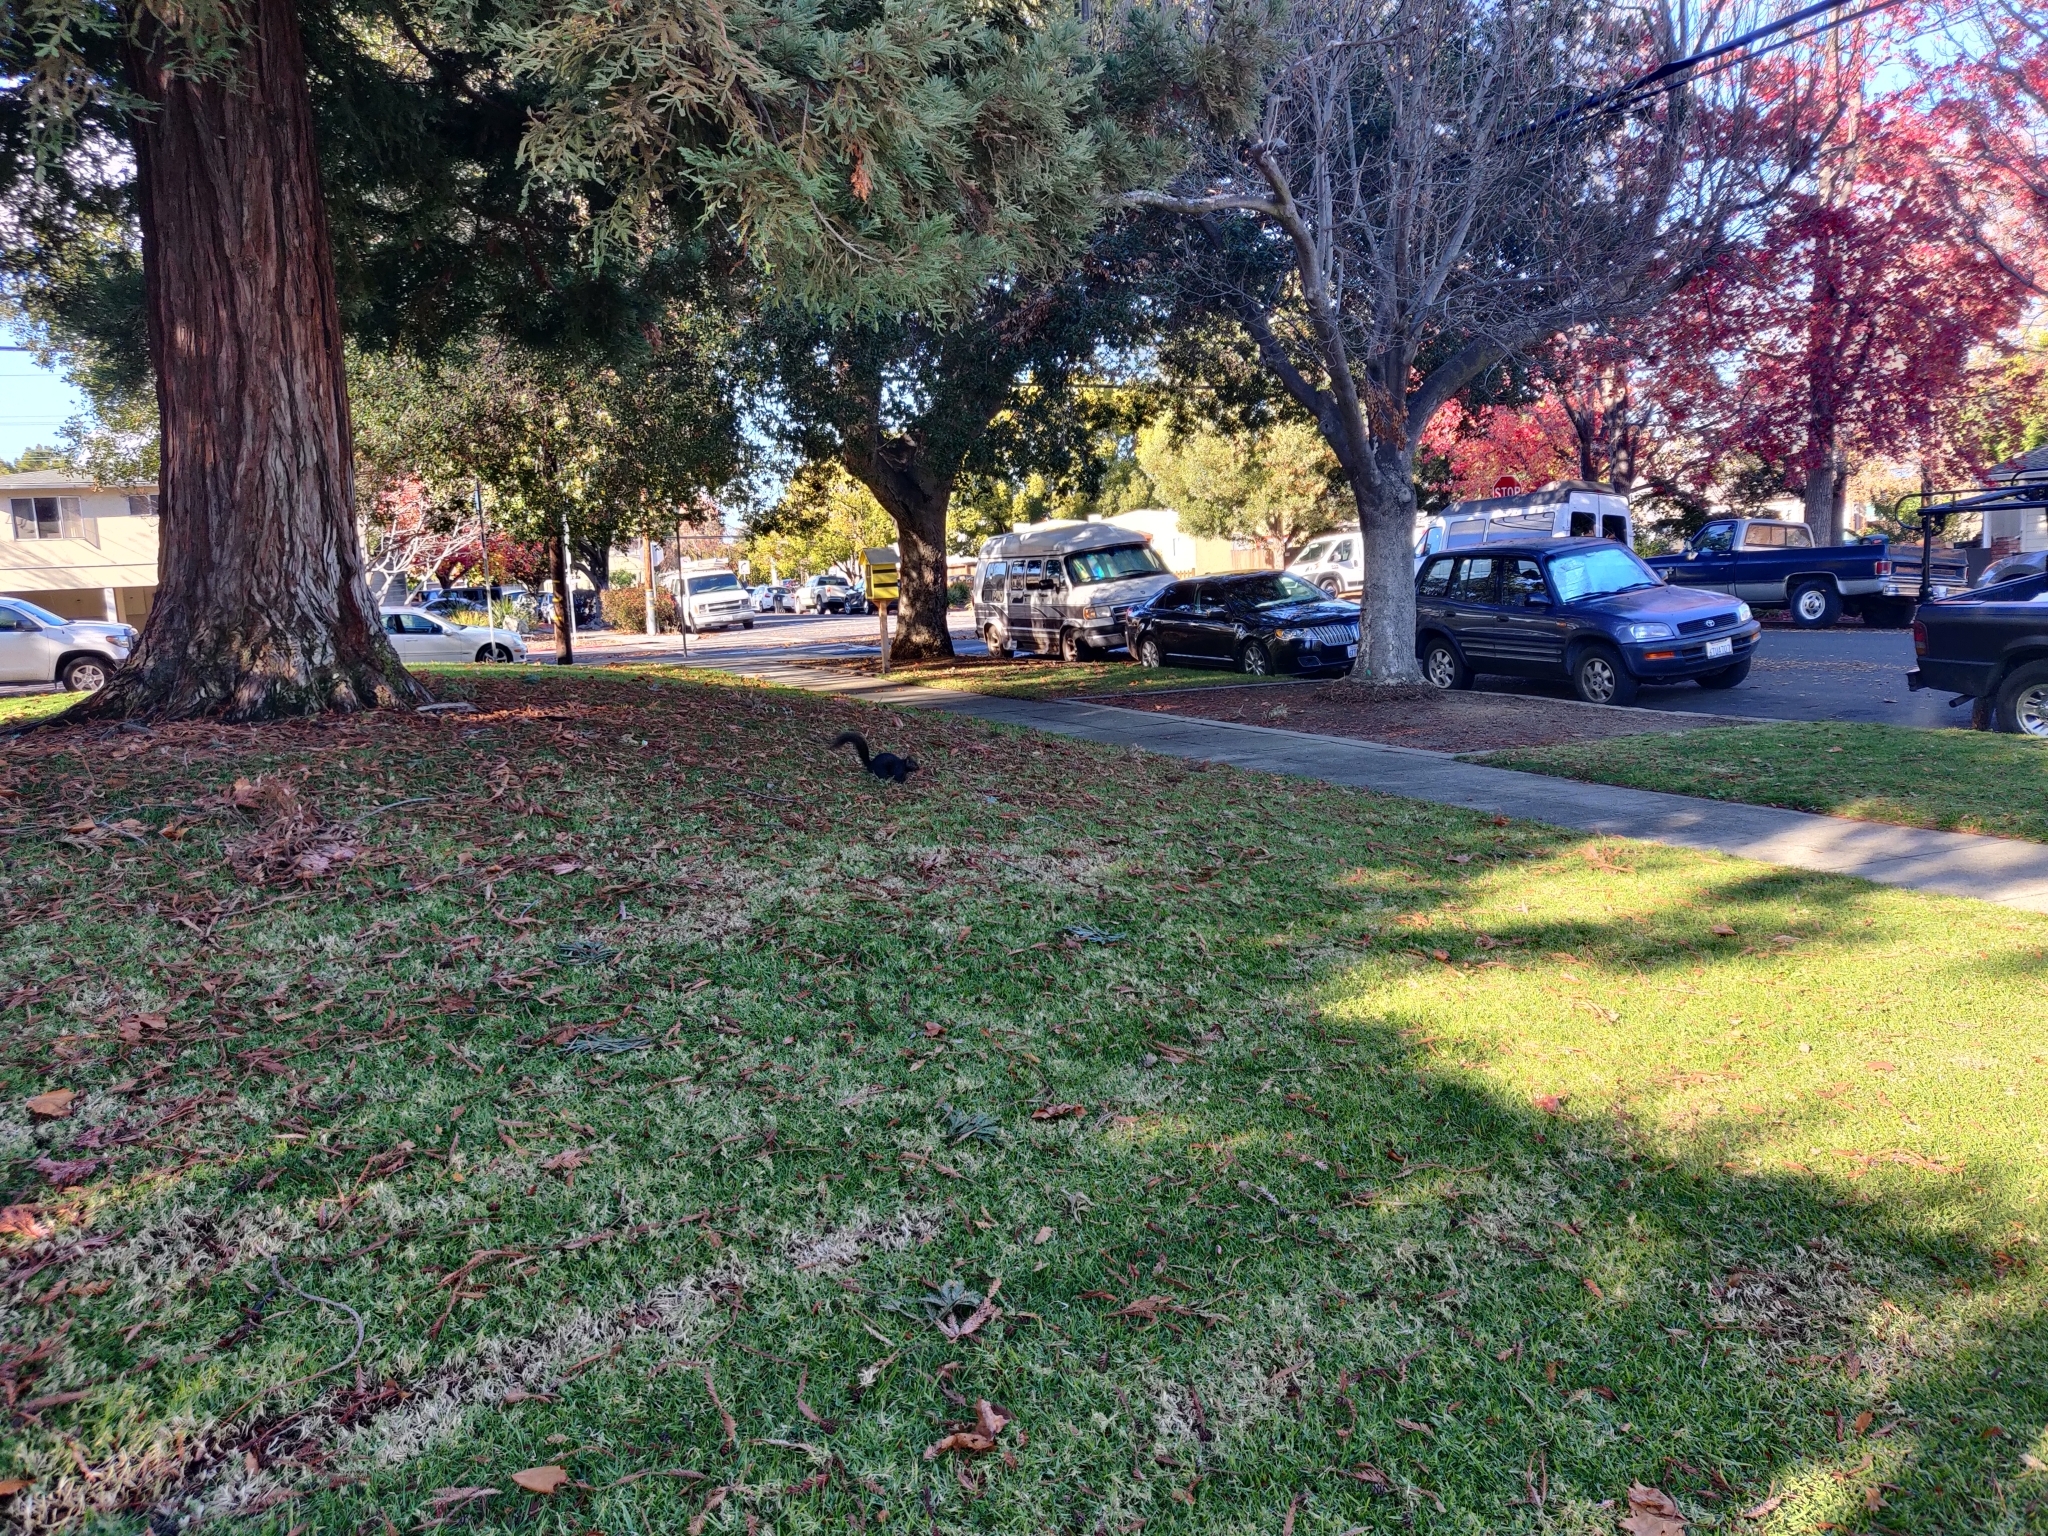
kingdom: Animalia
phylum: Chordata
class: Mammalia
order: Rodentia
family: Sciuridae
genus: Sciurus
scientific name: Sciurus carolinensis
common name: Eastern gray squirrel
